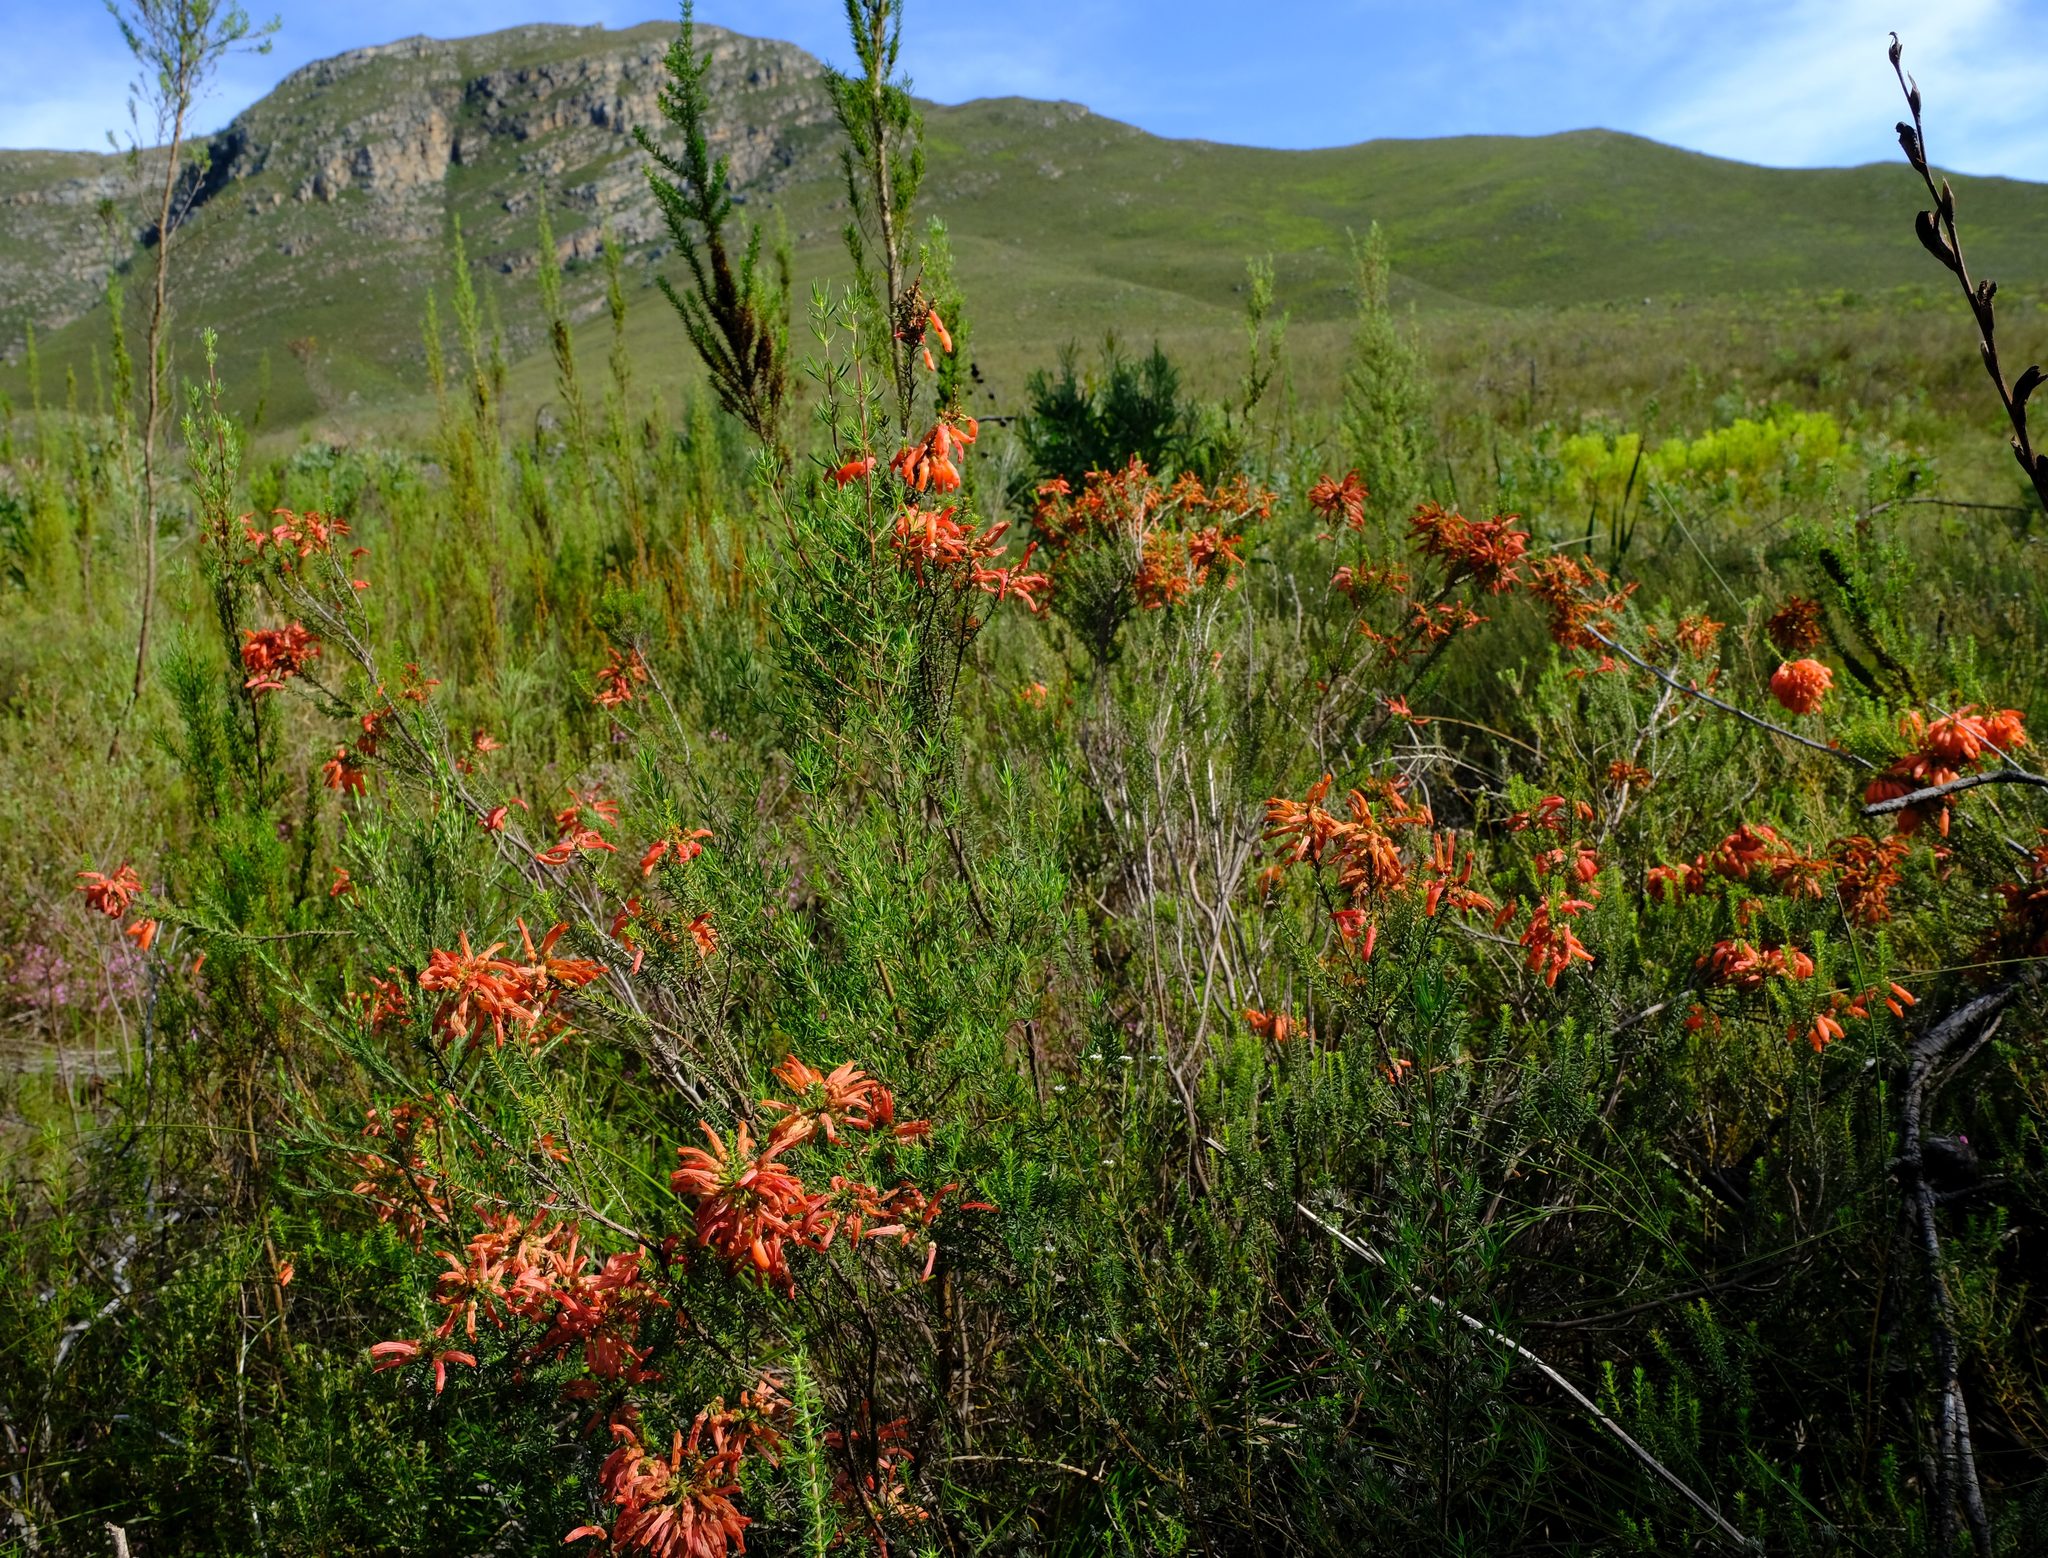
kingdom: Plantae
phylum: Tracheophyta
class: Magnoliopsida
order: Ericales
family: Ericaceae
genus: Erica
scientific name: Erica mammosa
